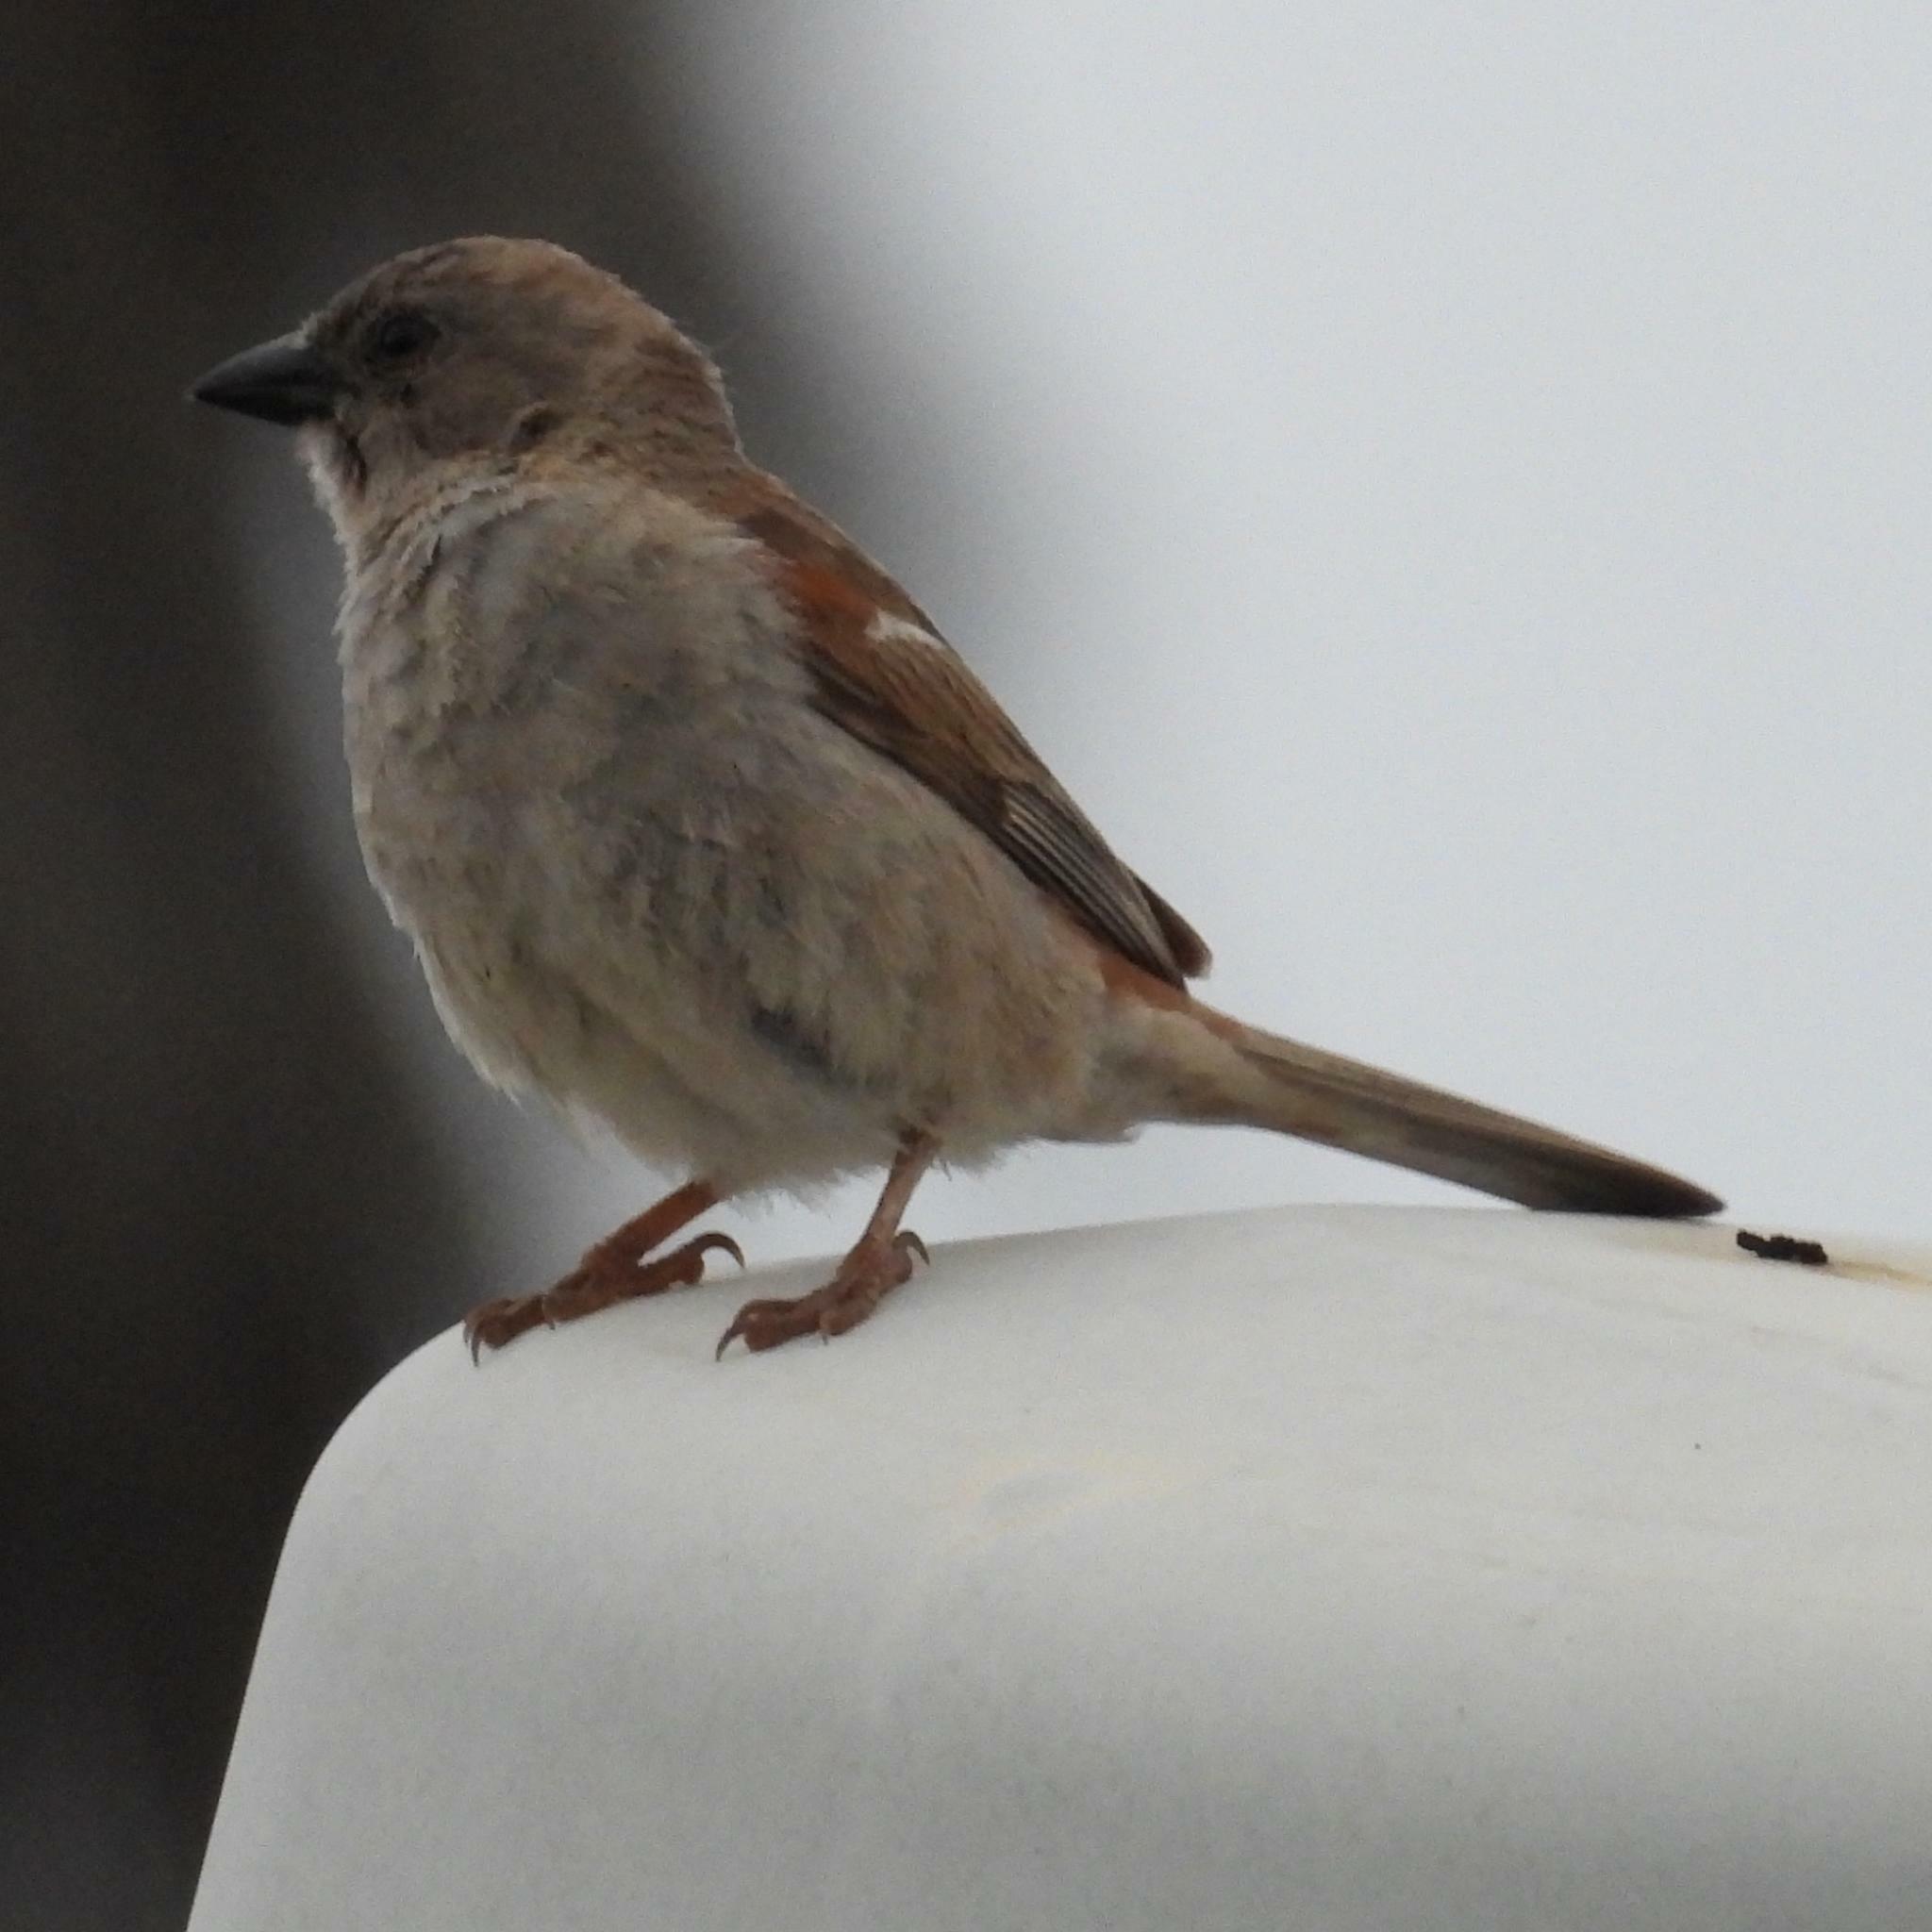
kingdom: Animalia
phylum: Chordata
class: Aves
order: Passeriformes
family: Passeridae
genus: Passer
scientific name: Passer diffusus
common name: Southern grey-headed sparrow
